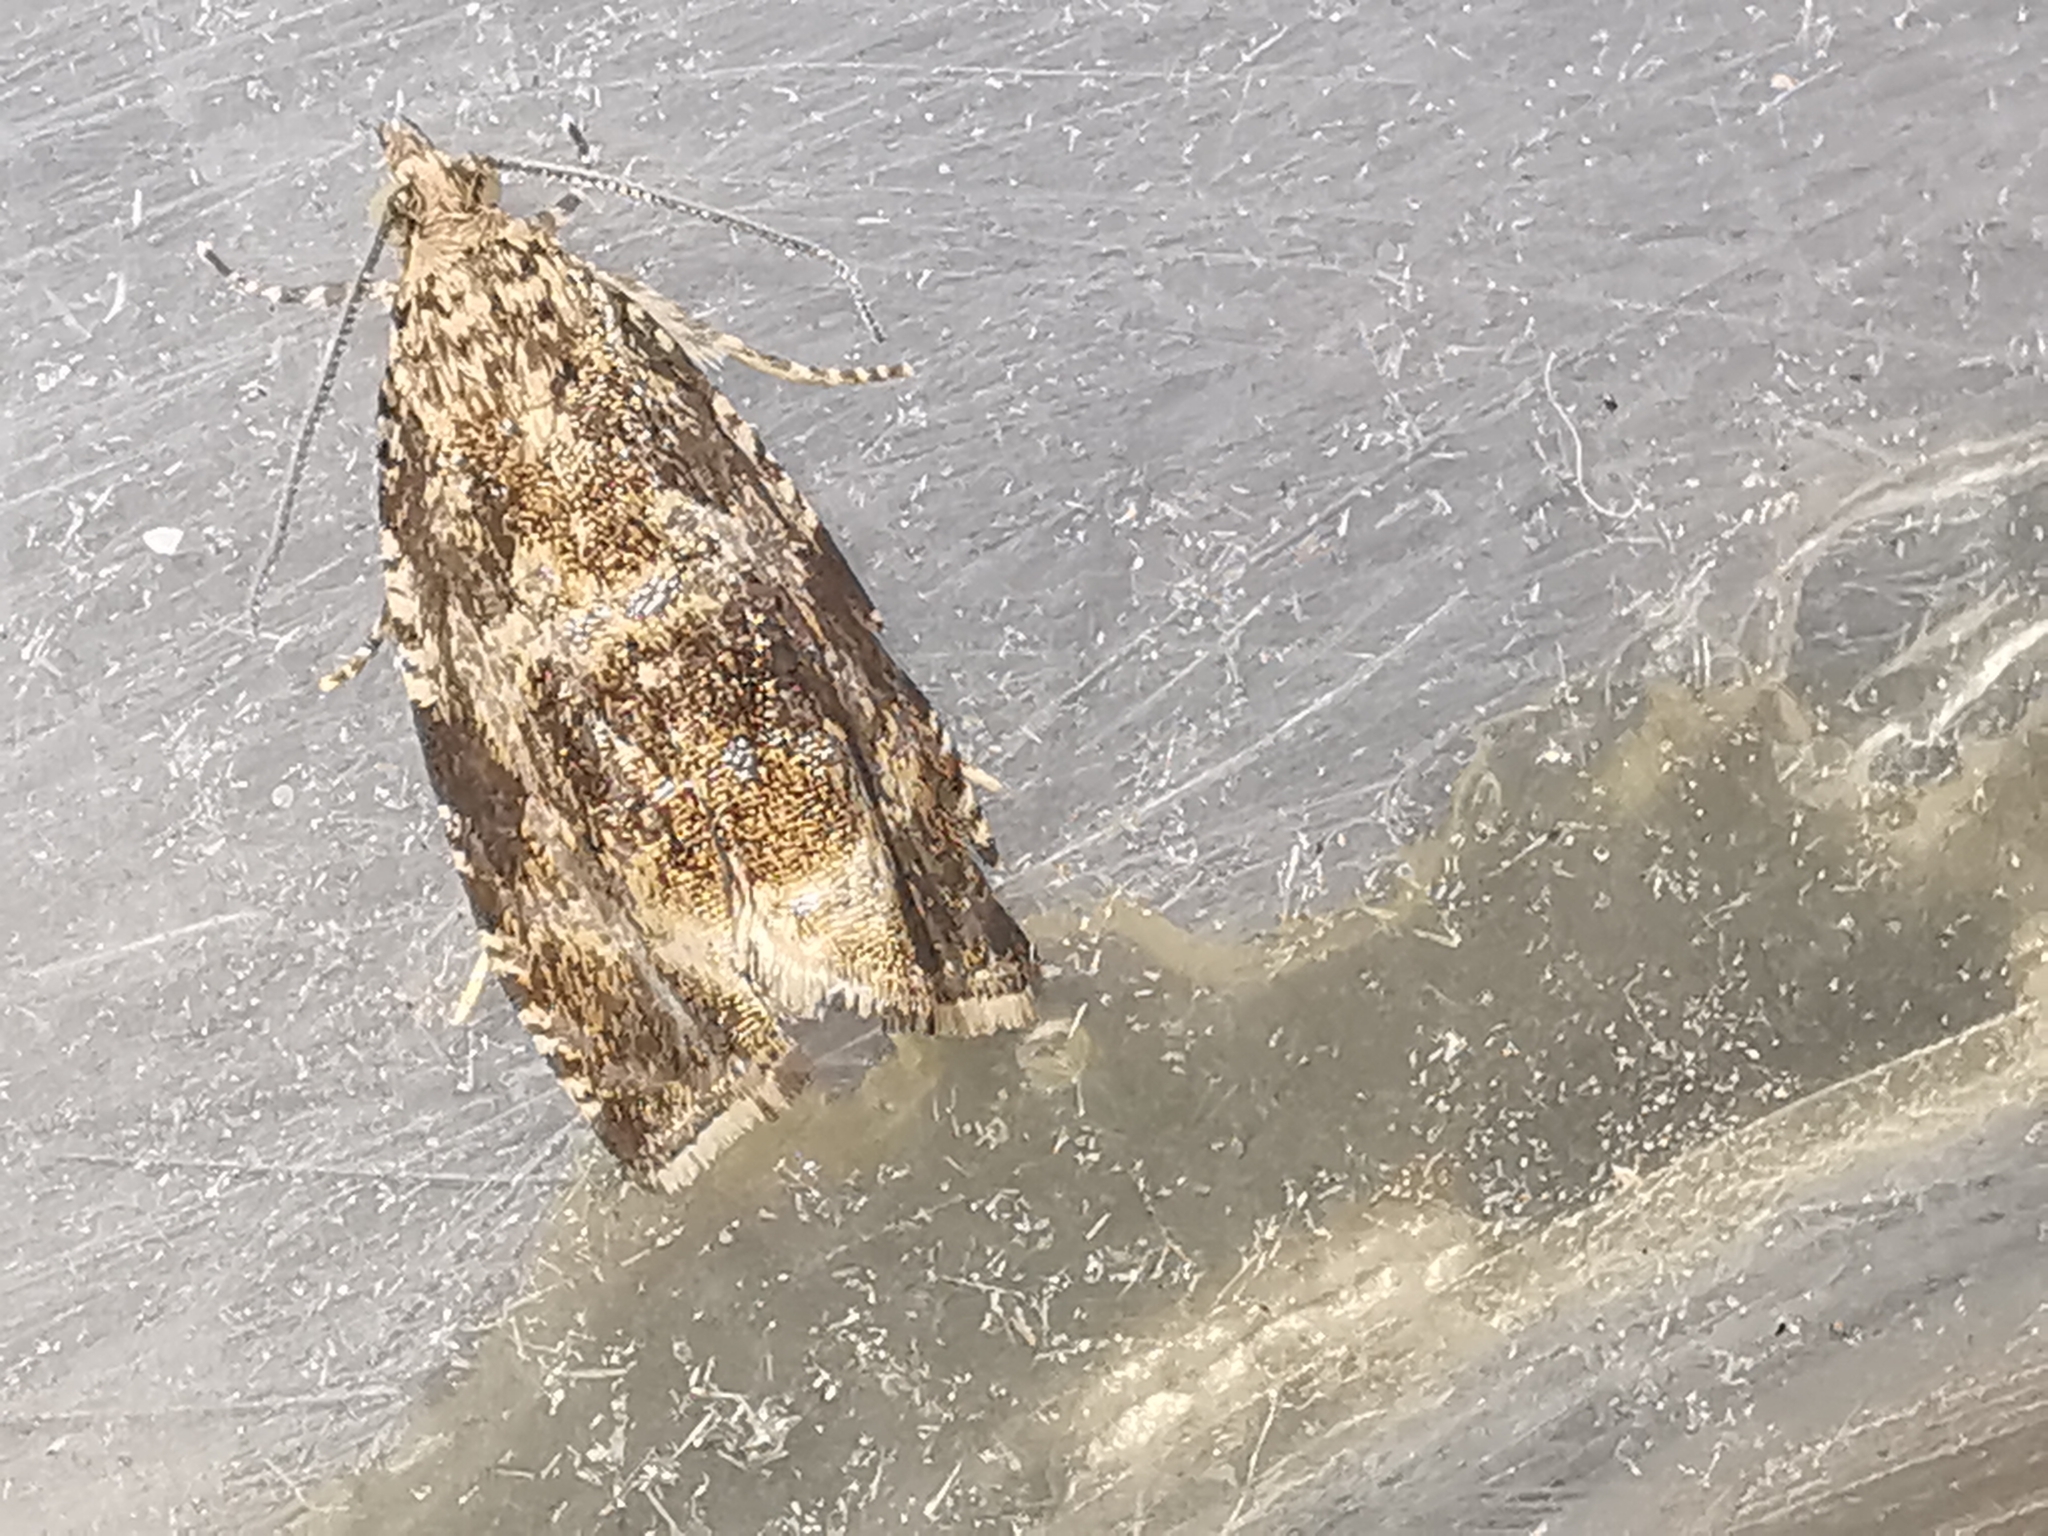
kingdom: Animalia
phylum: Arthropoda
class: Insecta
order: Lepidoptera
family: Tortricidae
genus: Syricoris
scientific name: Syricoris lacunana
